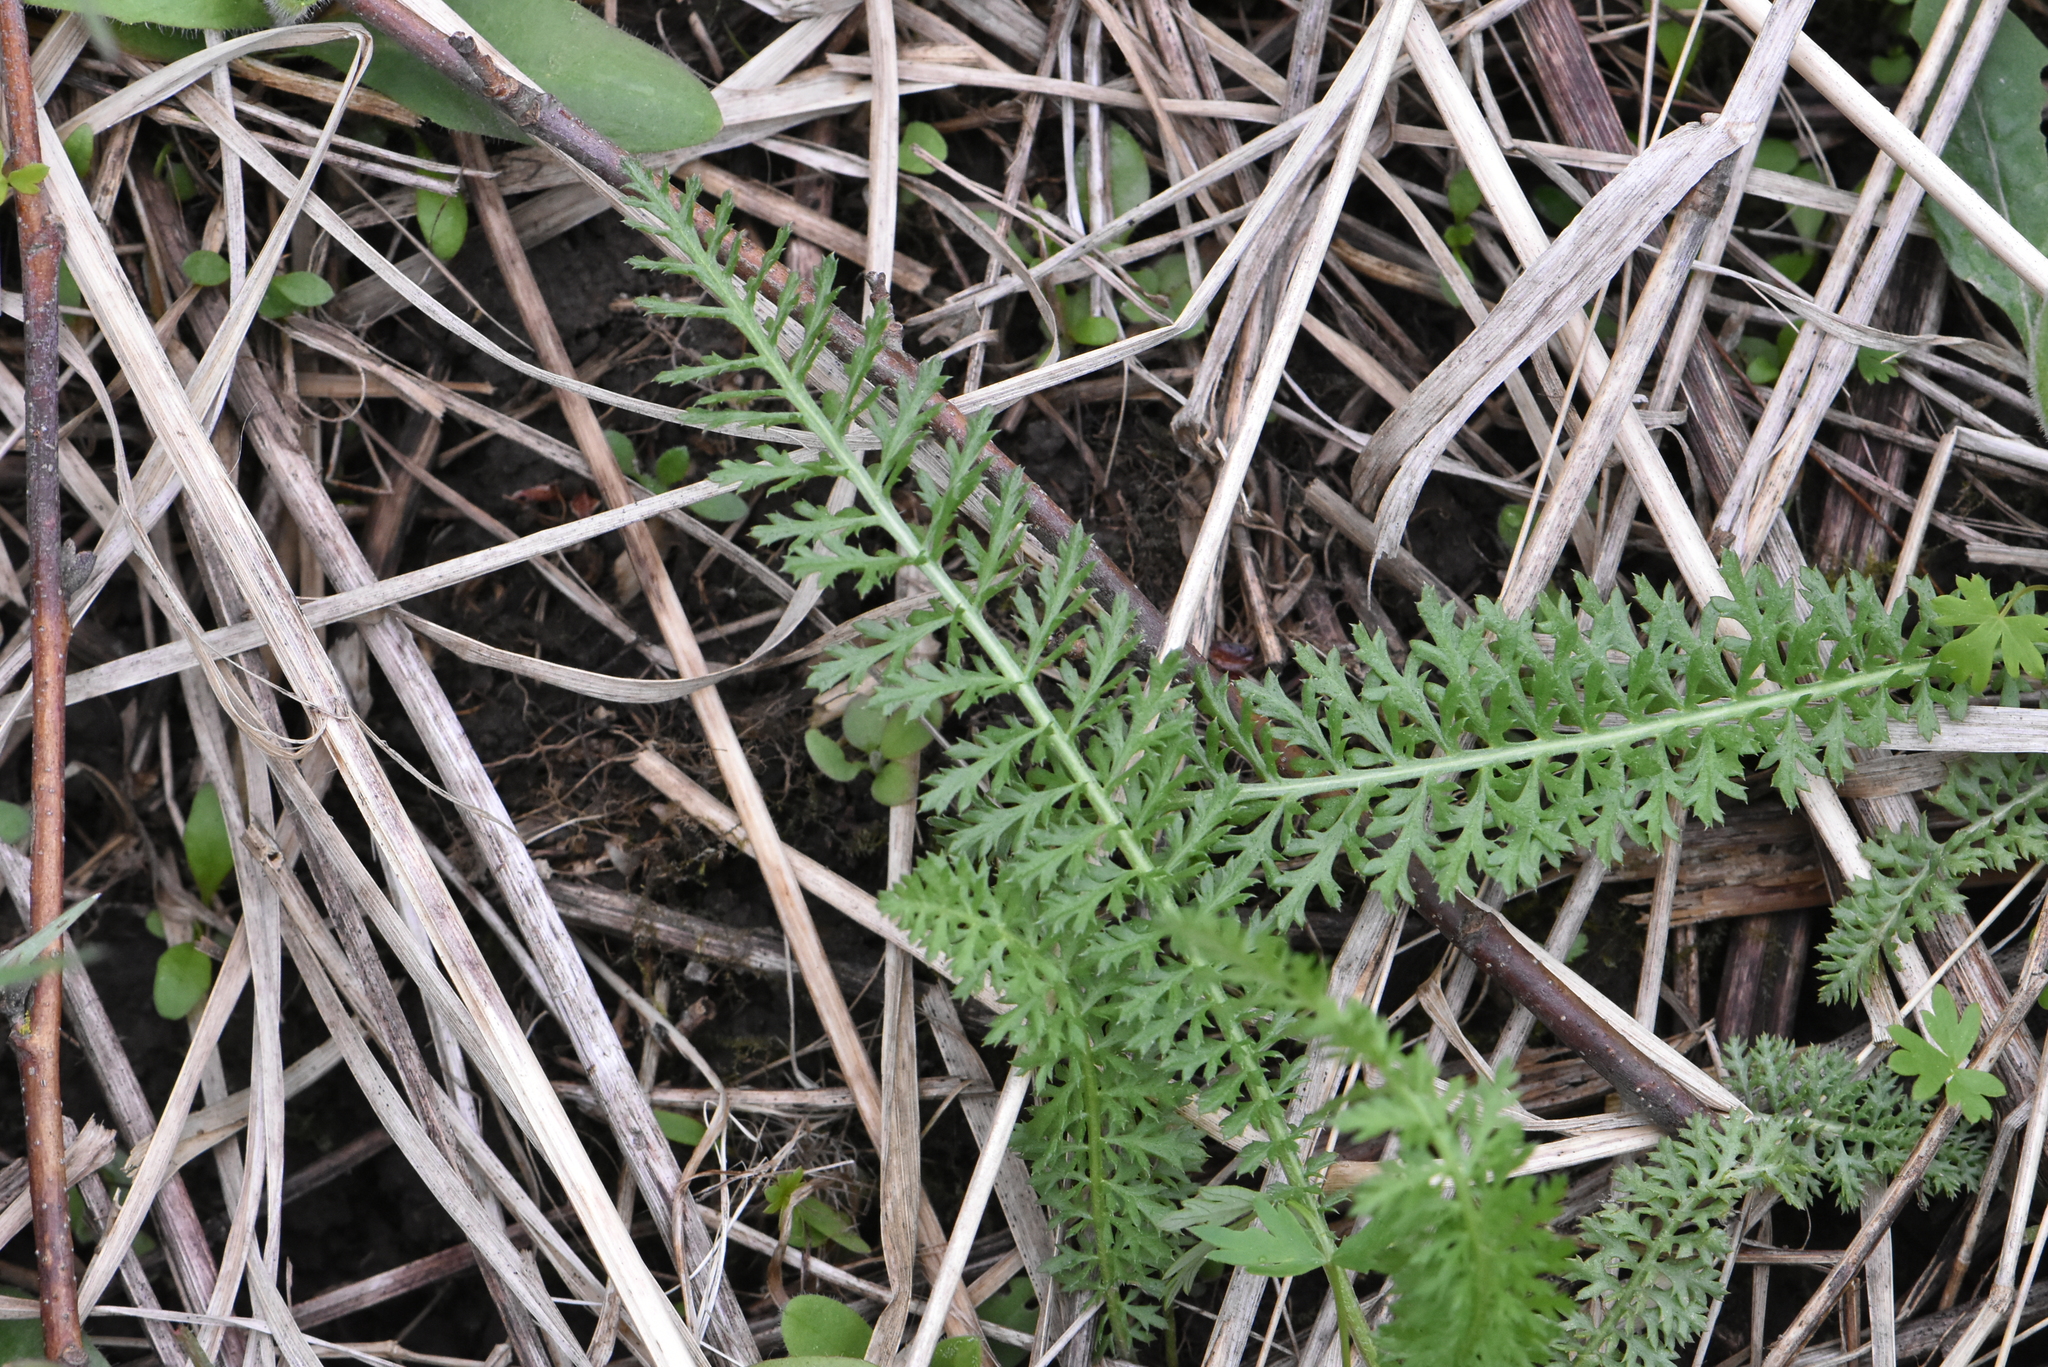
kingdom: Plantae
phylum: Tracheophyta
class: Magnoliopsida
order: Asterales
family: Asteraceae
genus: Achillea
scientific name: Achillea millefolium
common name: Yarrow
